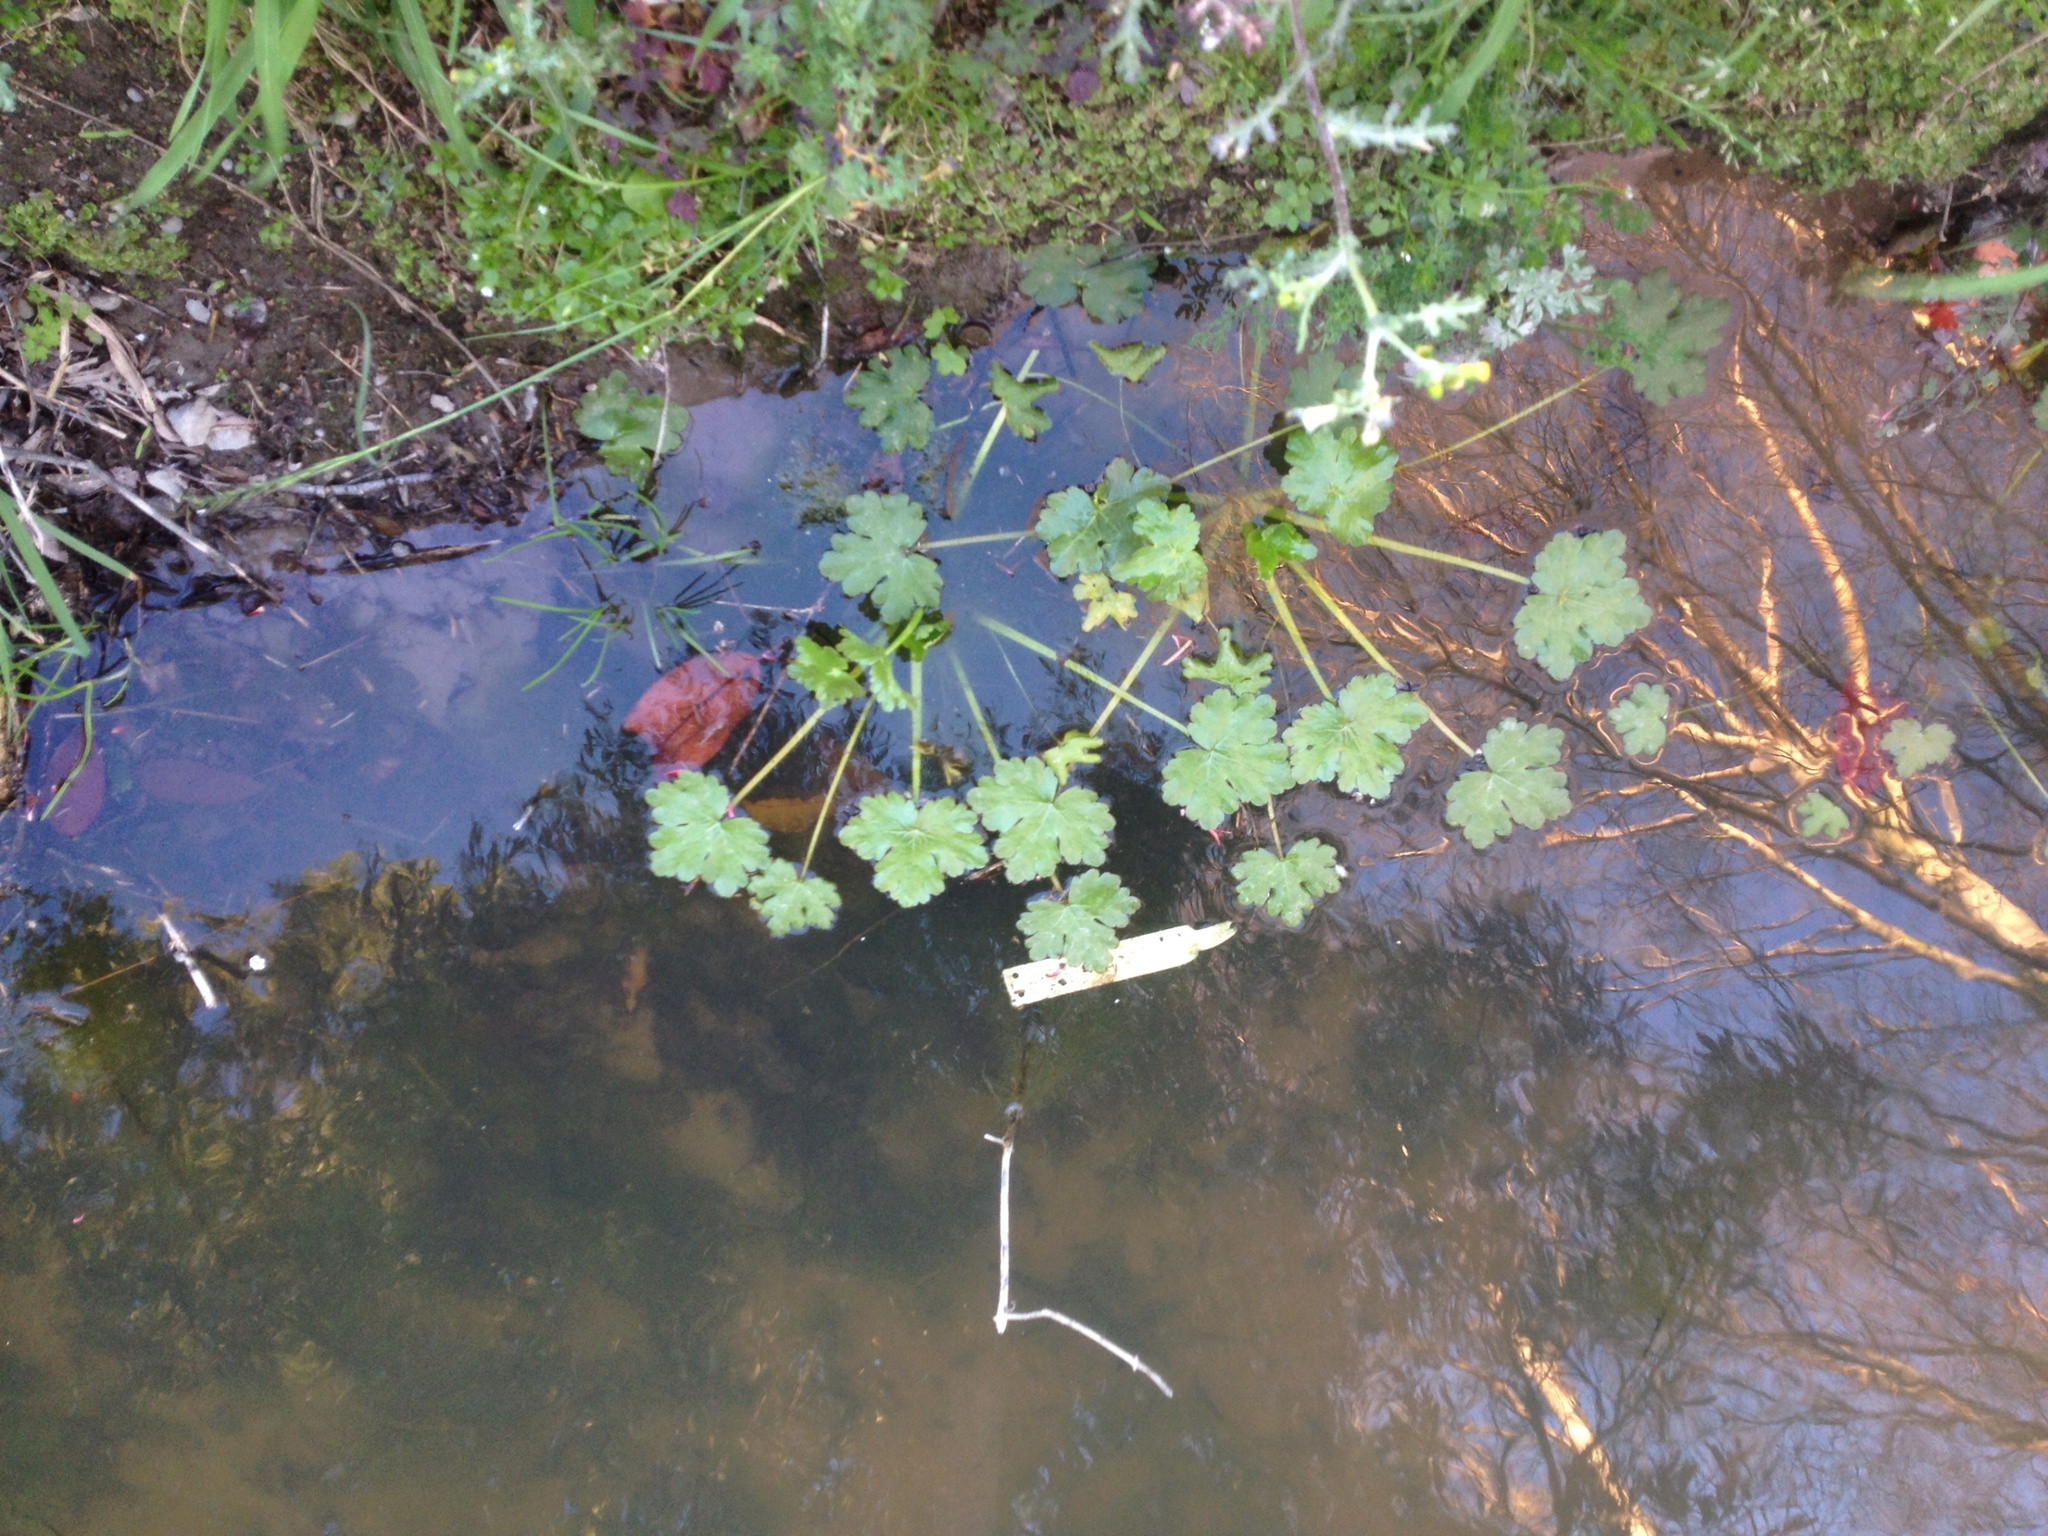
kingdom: Plantae
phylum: Tracheophyta
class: Magnoliopsida
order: Ranunculales
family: Ranunculaceae
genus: Ranunculus
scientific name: Ranunculus sceleratus
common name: Celery-leaved buttercup
